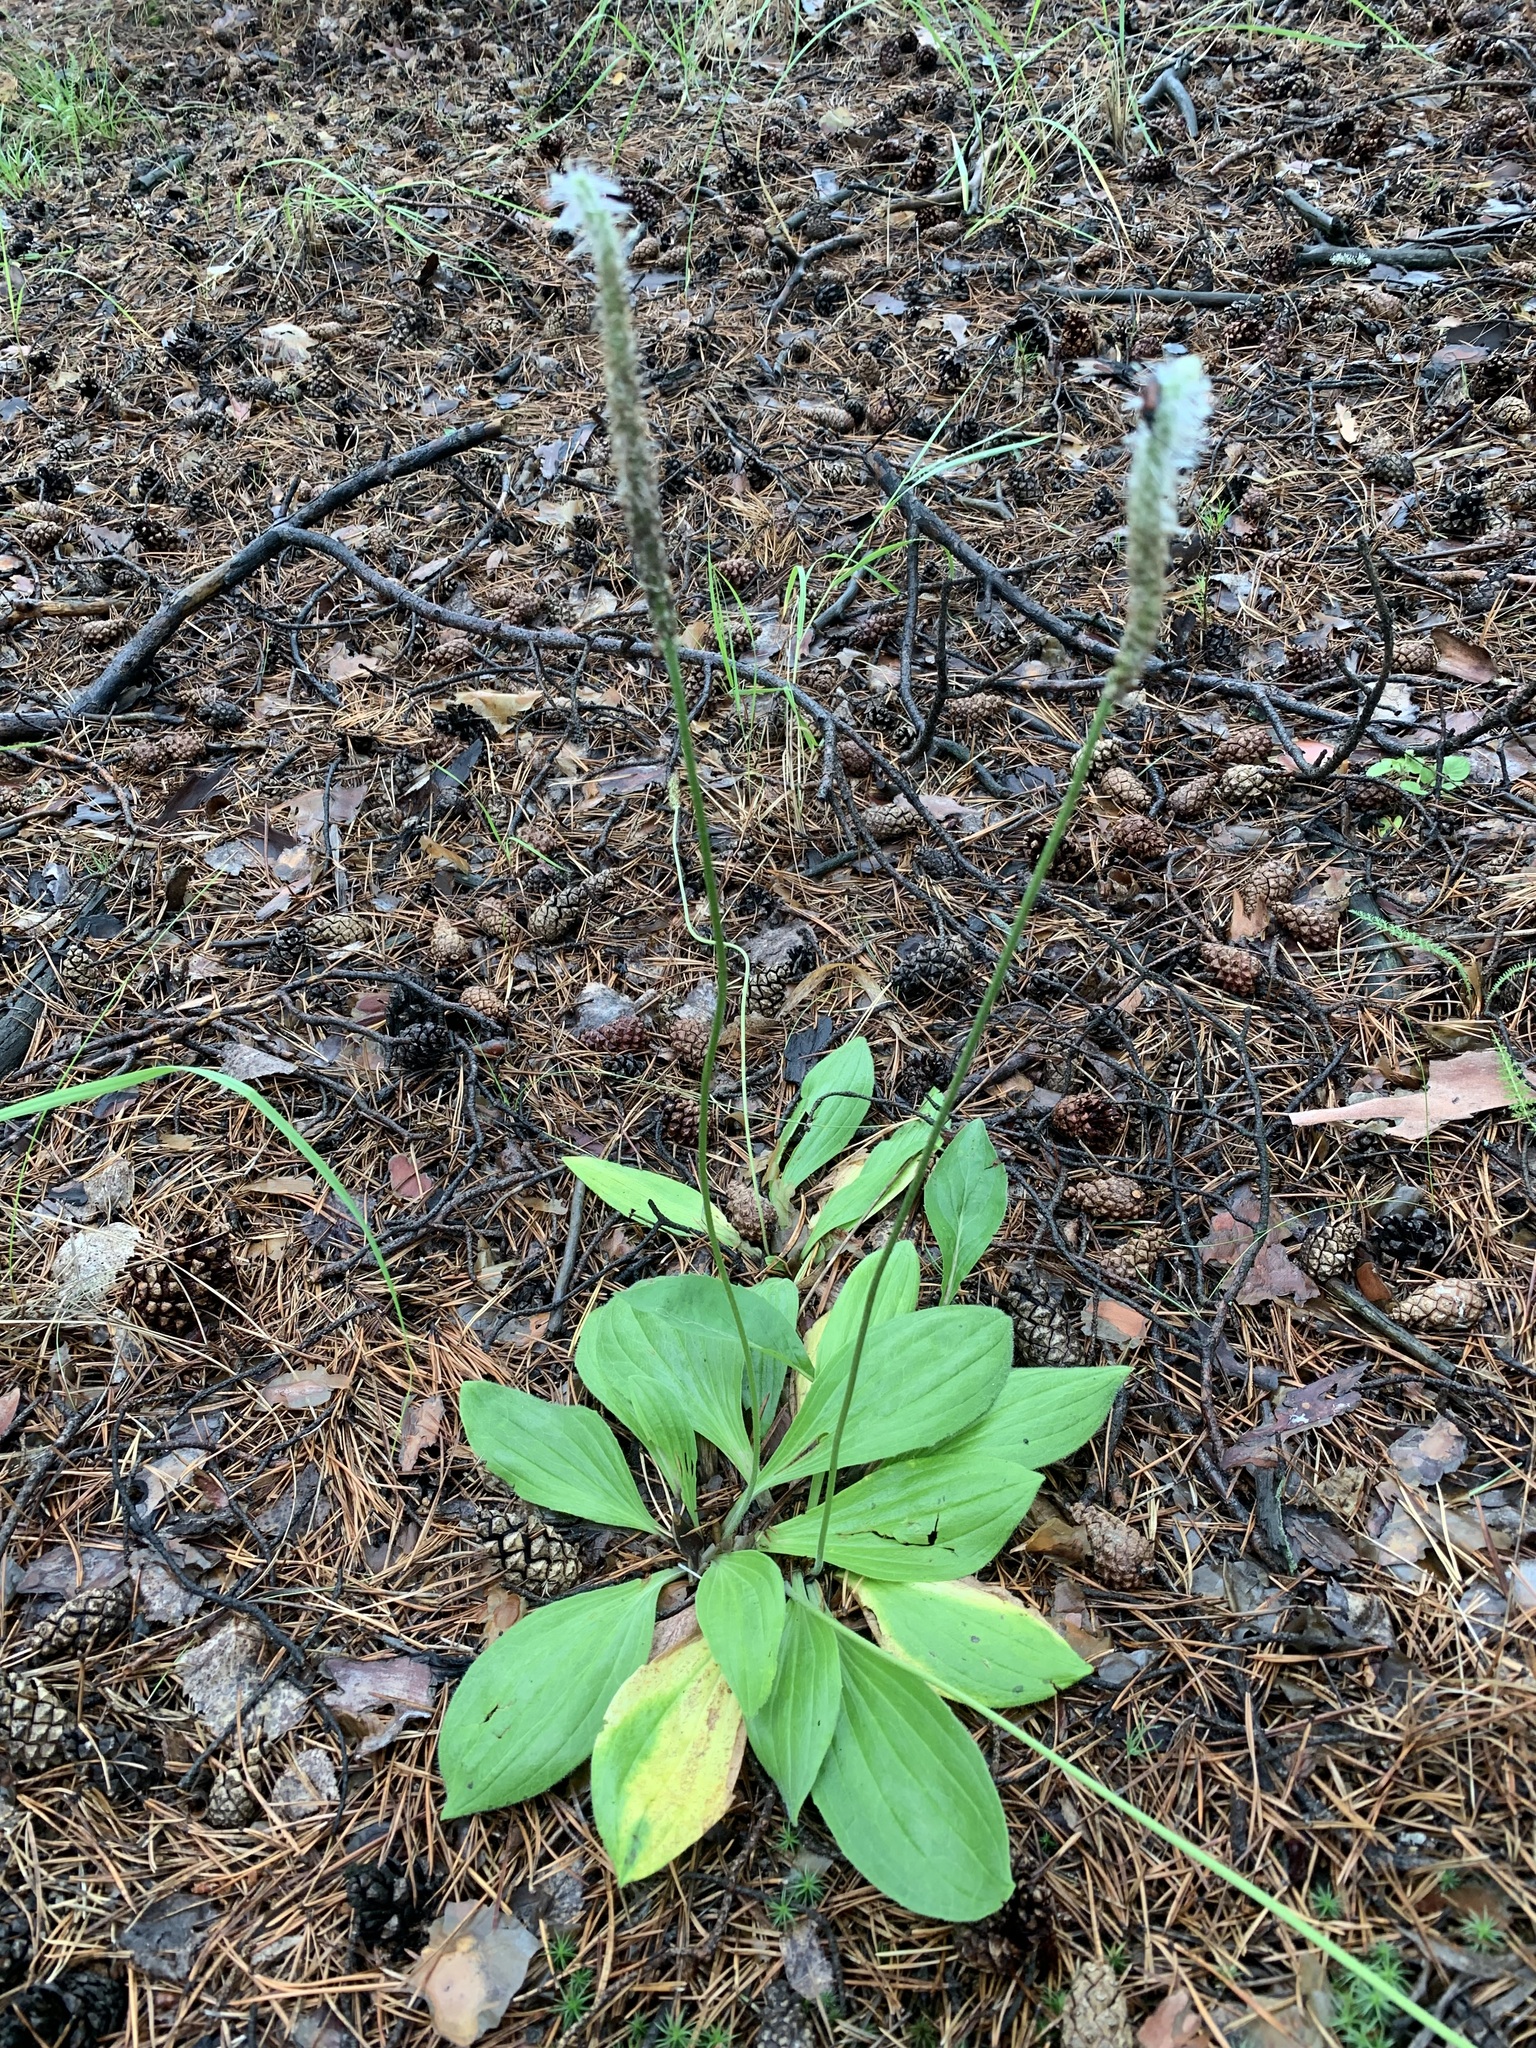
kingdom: Plantae
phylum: Tracheophyta
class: Magnoliopsida
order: Lamiales
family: Plantaginaceae
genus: Plantago
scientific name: Plantago media
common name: Hoary plantain
